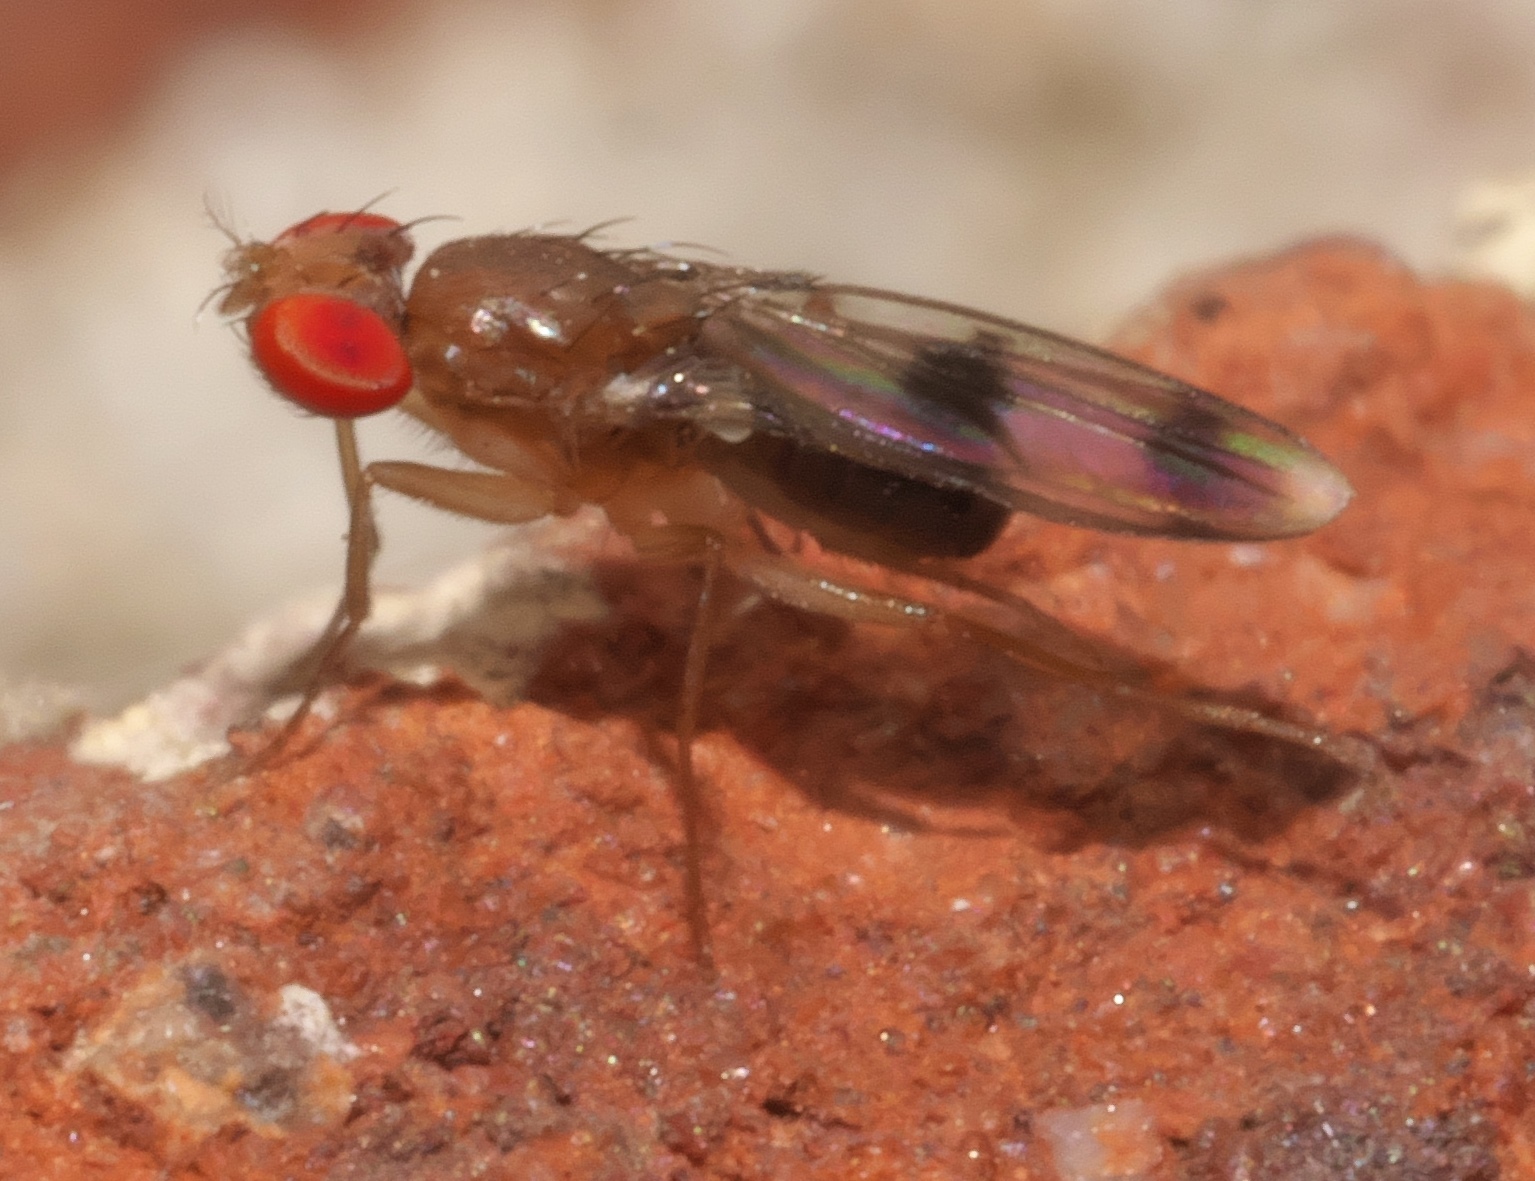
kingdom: Animalia
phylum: Arthropoda
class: Insecta
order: Diptera
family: Drosophilidae
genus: Chymomyza
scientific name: Chymomyza amoena
